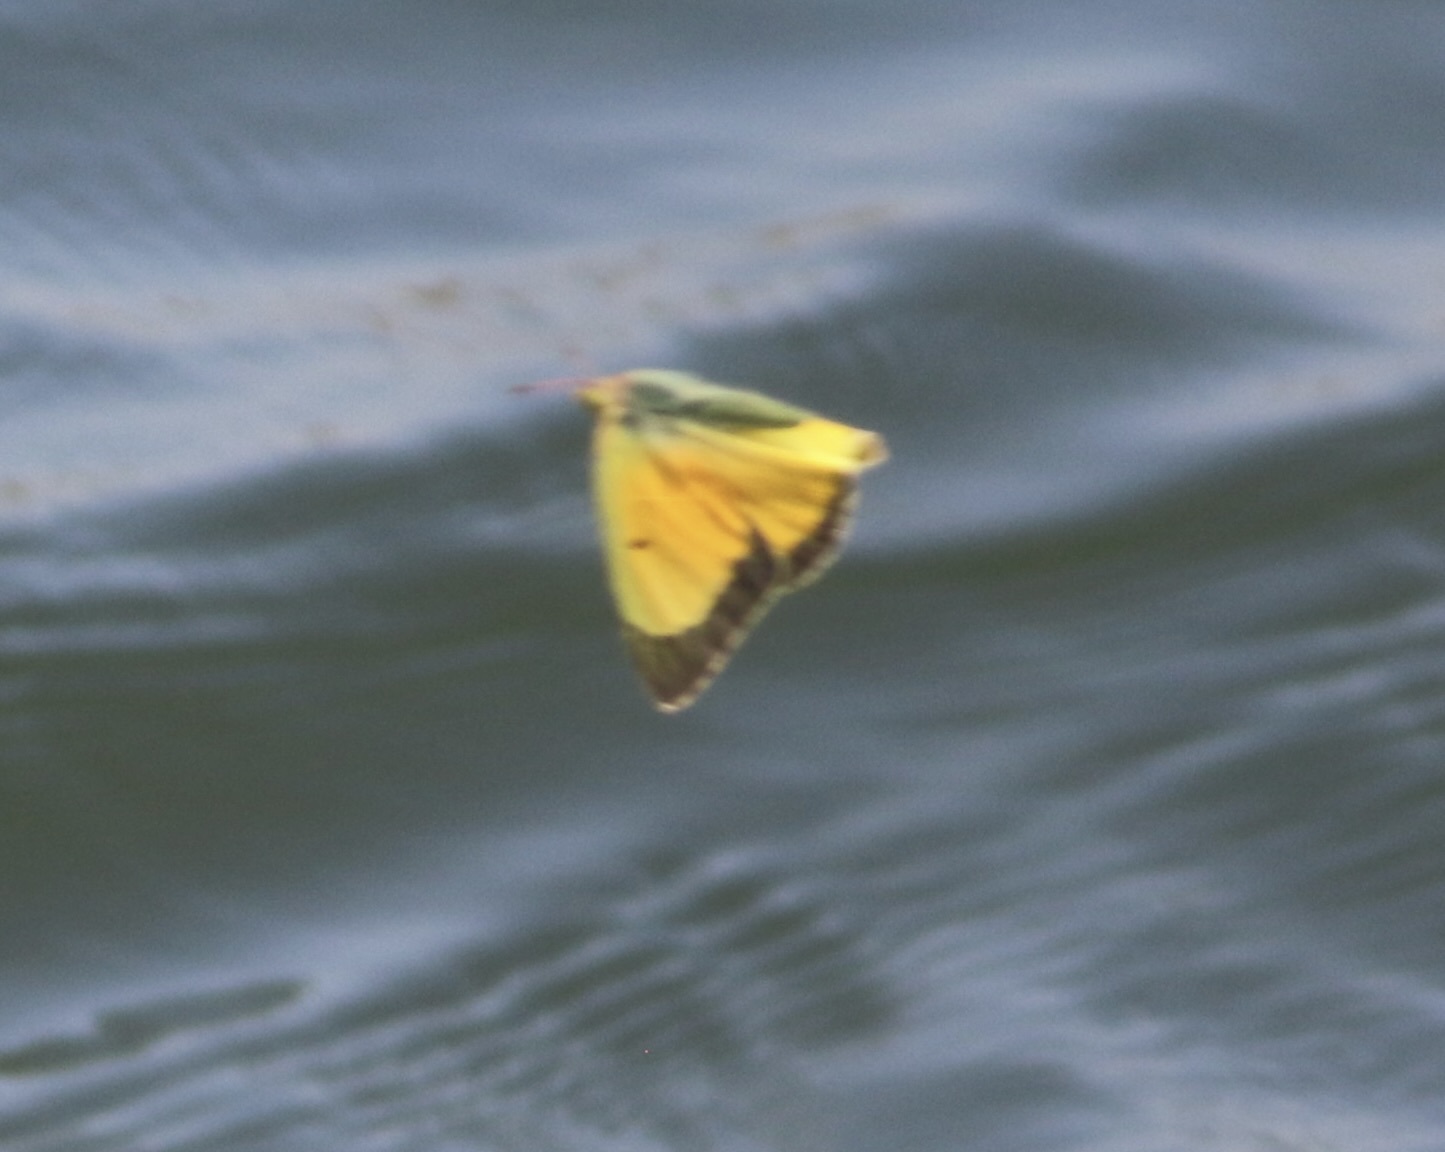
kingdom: Animalia
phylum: Arthropoda
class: Insecta
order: Lepidoptera
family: Pieridae
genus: Colias
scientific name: Colias eurytheme
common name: Alfalfa butterfly
